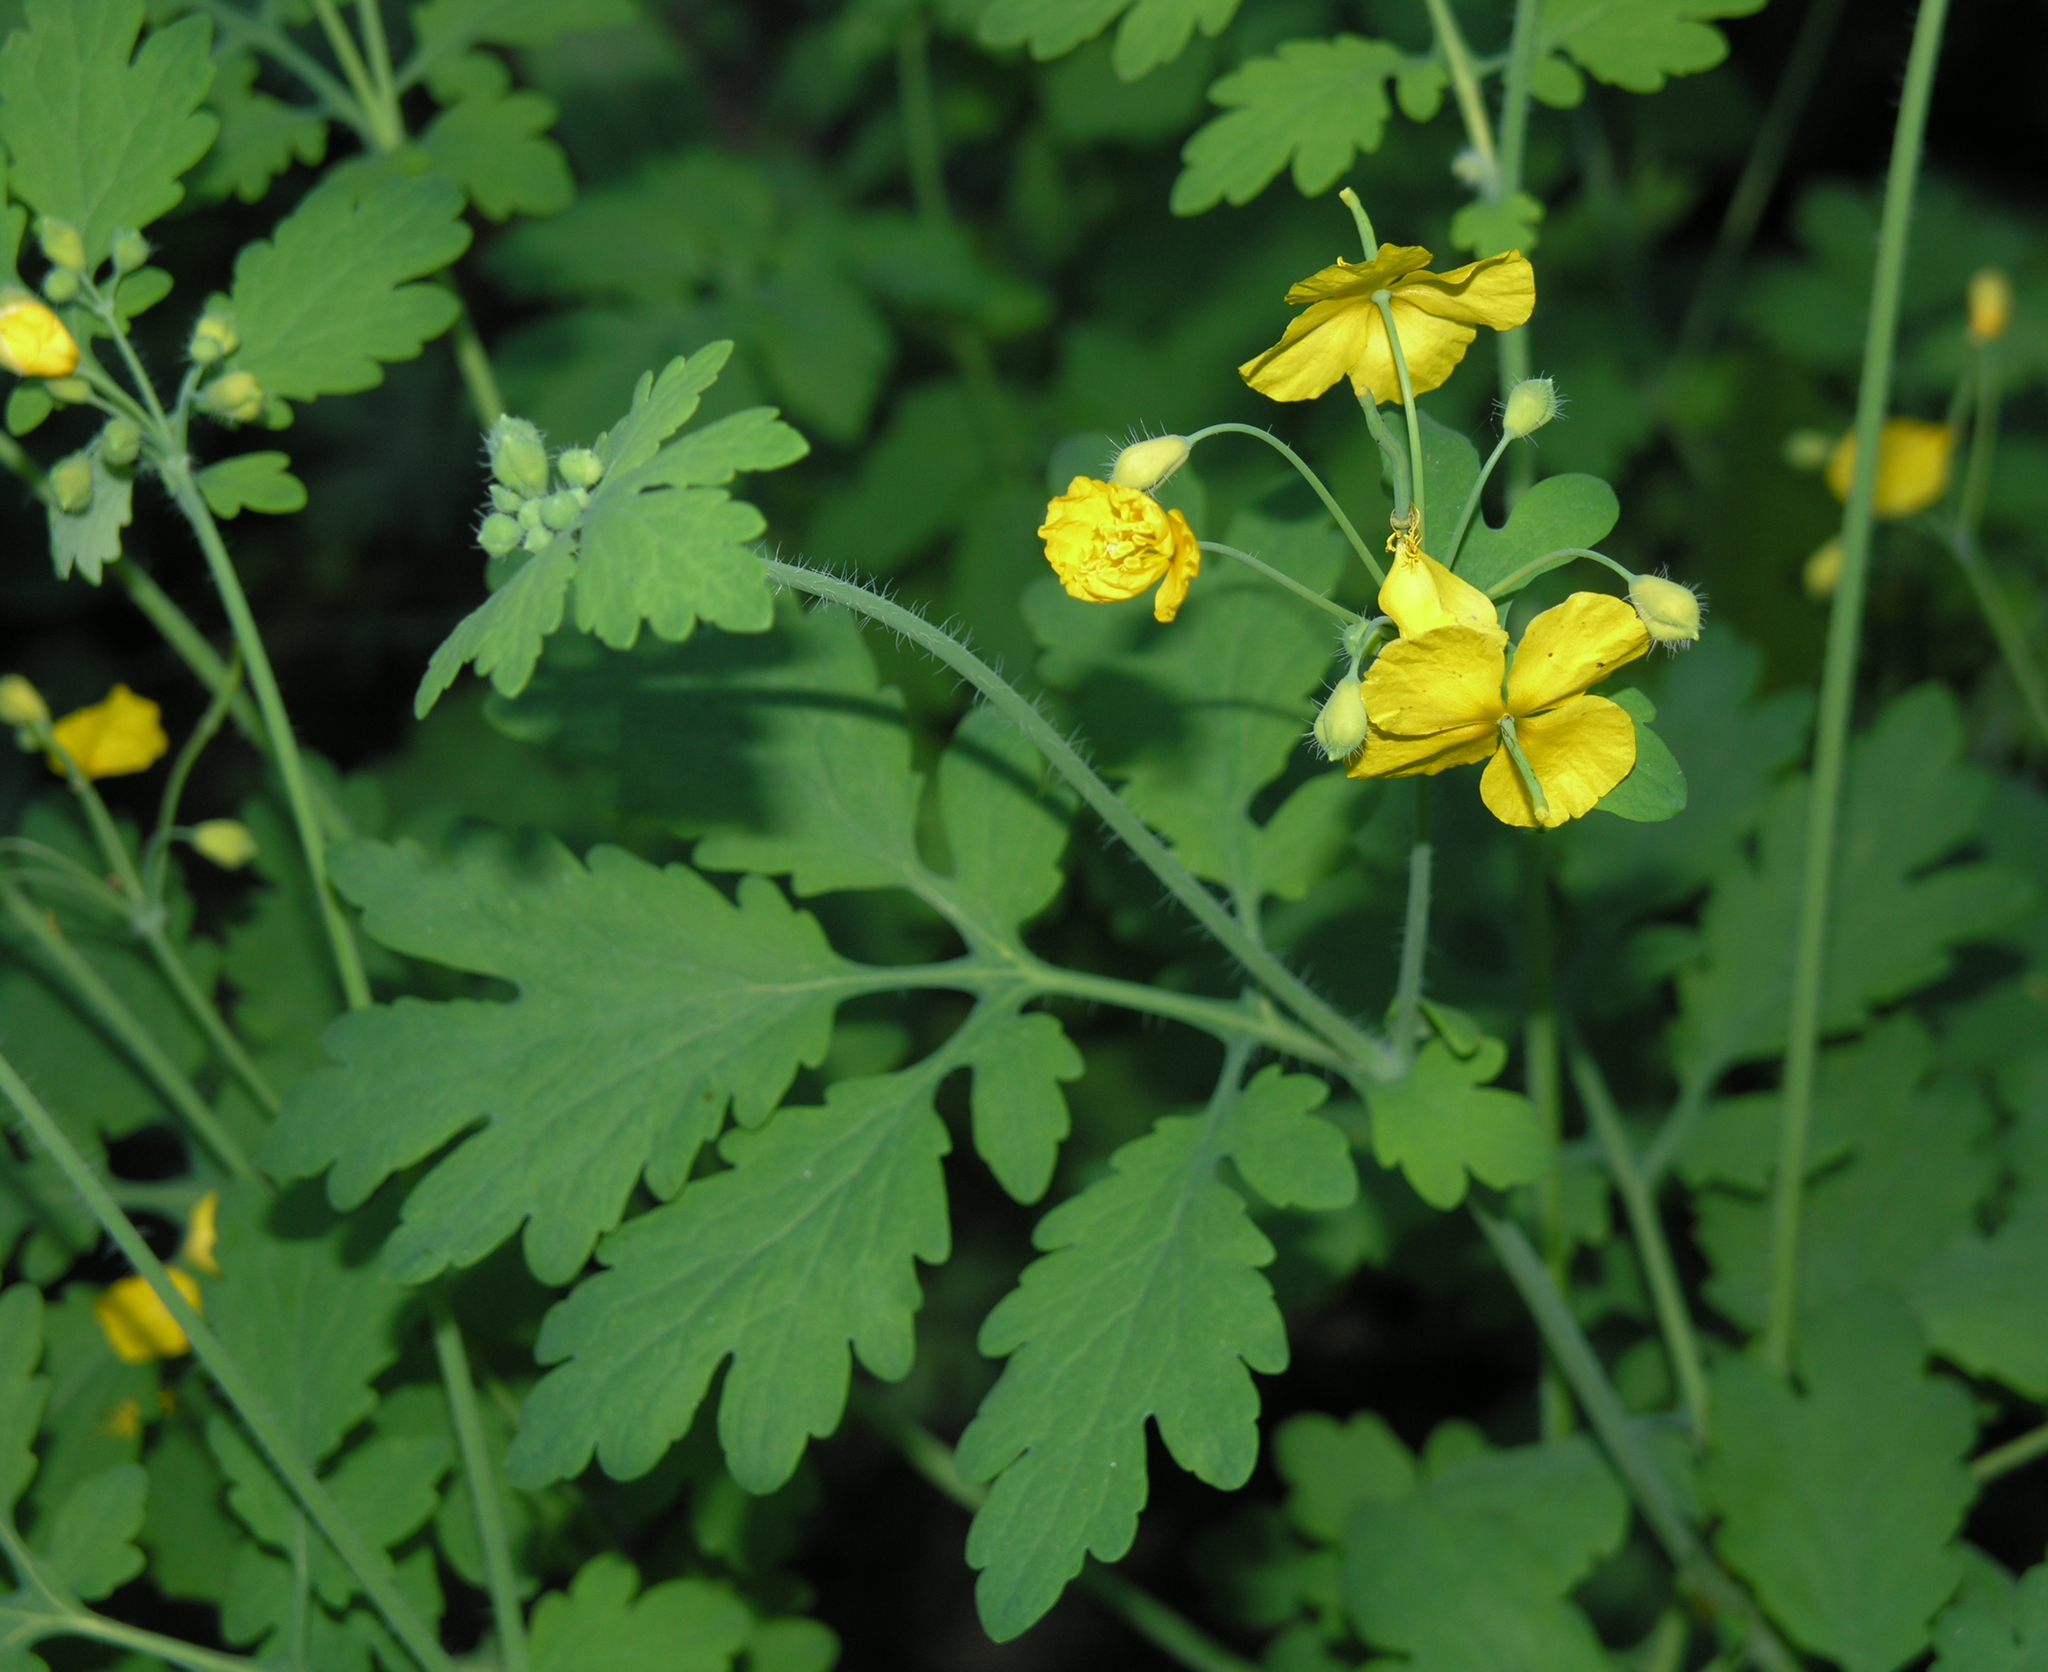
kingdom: Plantae
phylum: Tracheophyta
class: Magnoliopsida
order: Ranunculales
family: Papaveraceae
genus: Chelidonium
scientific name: Chelidonium majus
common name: Greater celandine
